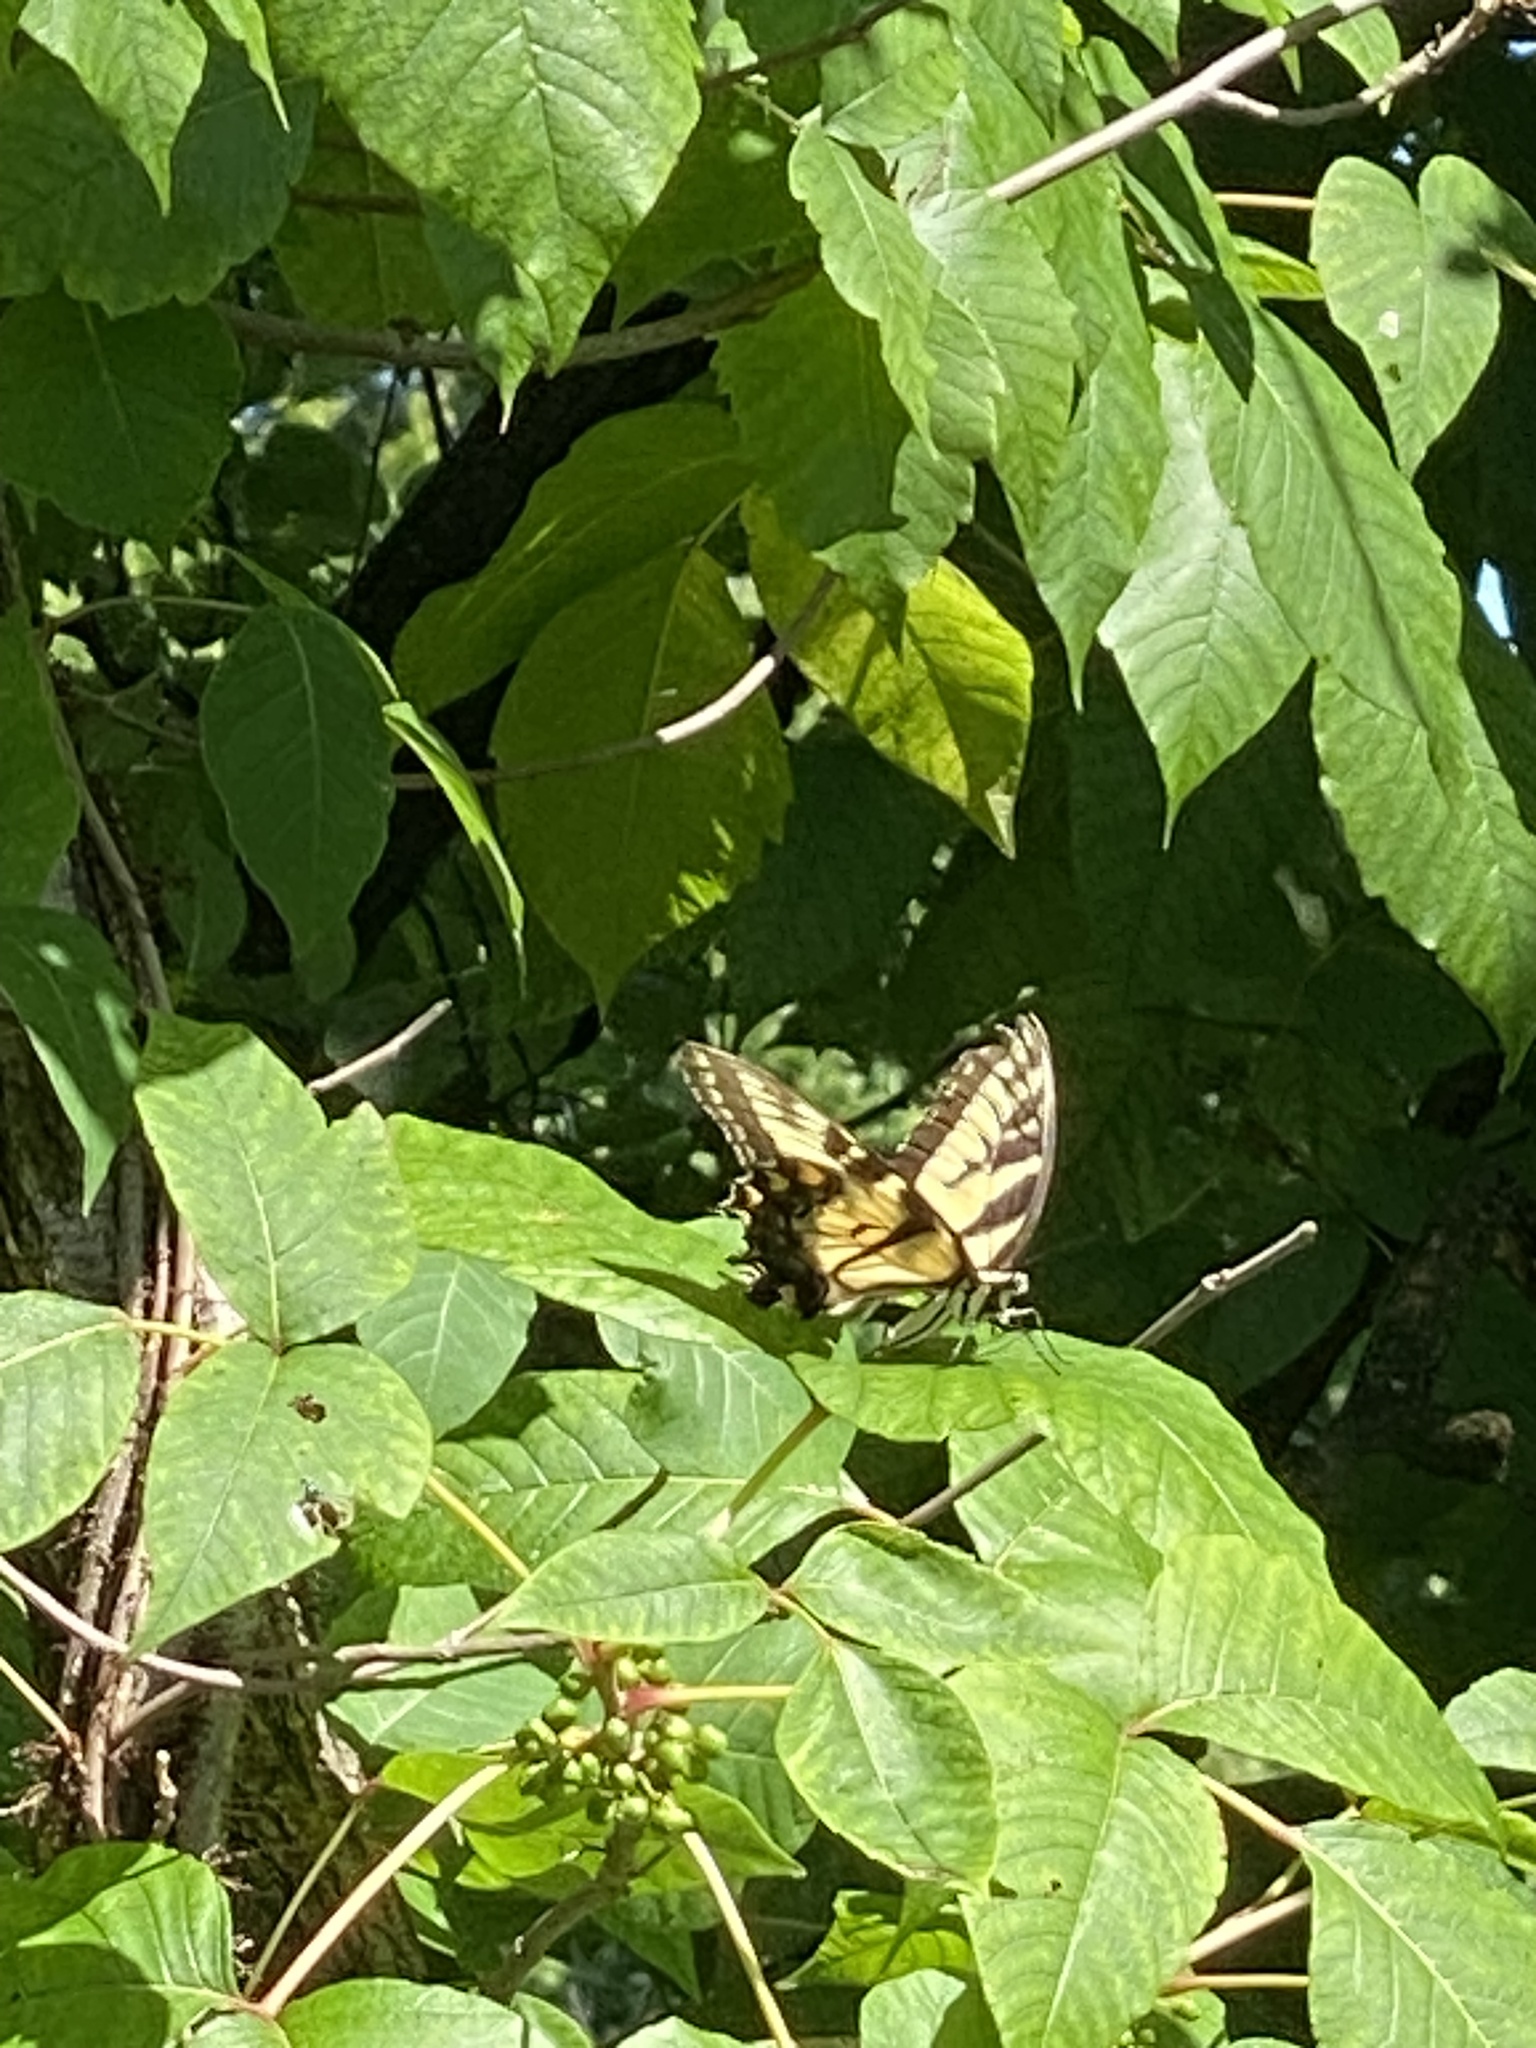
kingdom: Animalia
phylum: Arthropoda
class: Insecta
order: Lepidoptera
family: Papilionidae
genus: Papilio
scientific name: Papilio glaucus
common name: Tiger swallowtail
